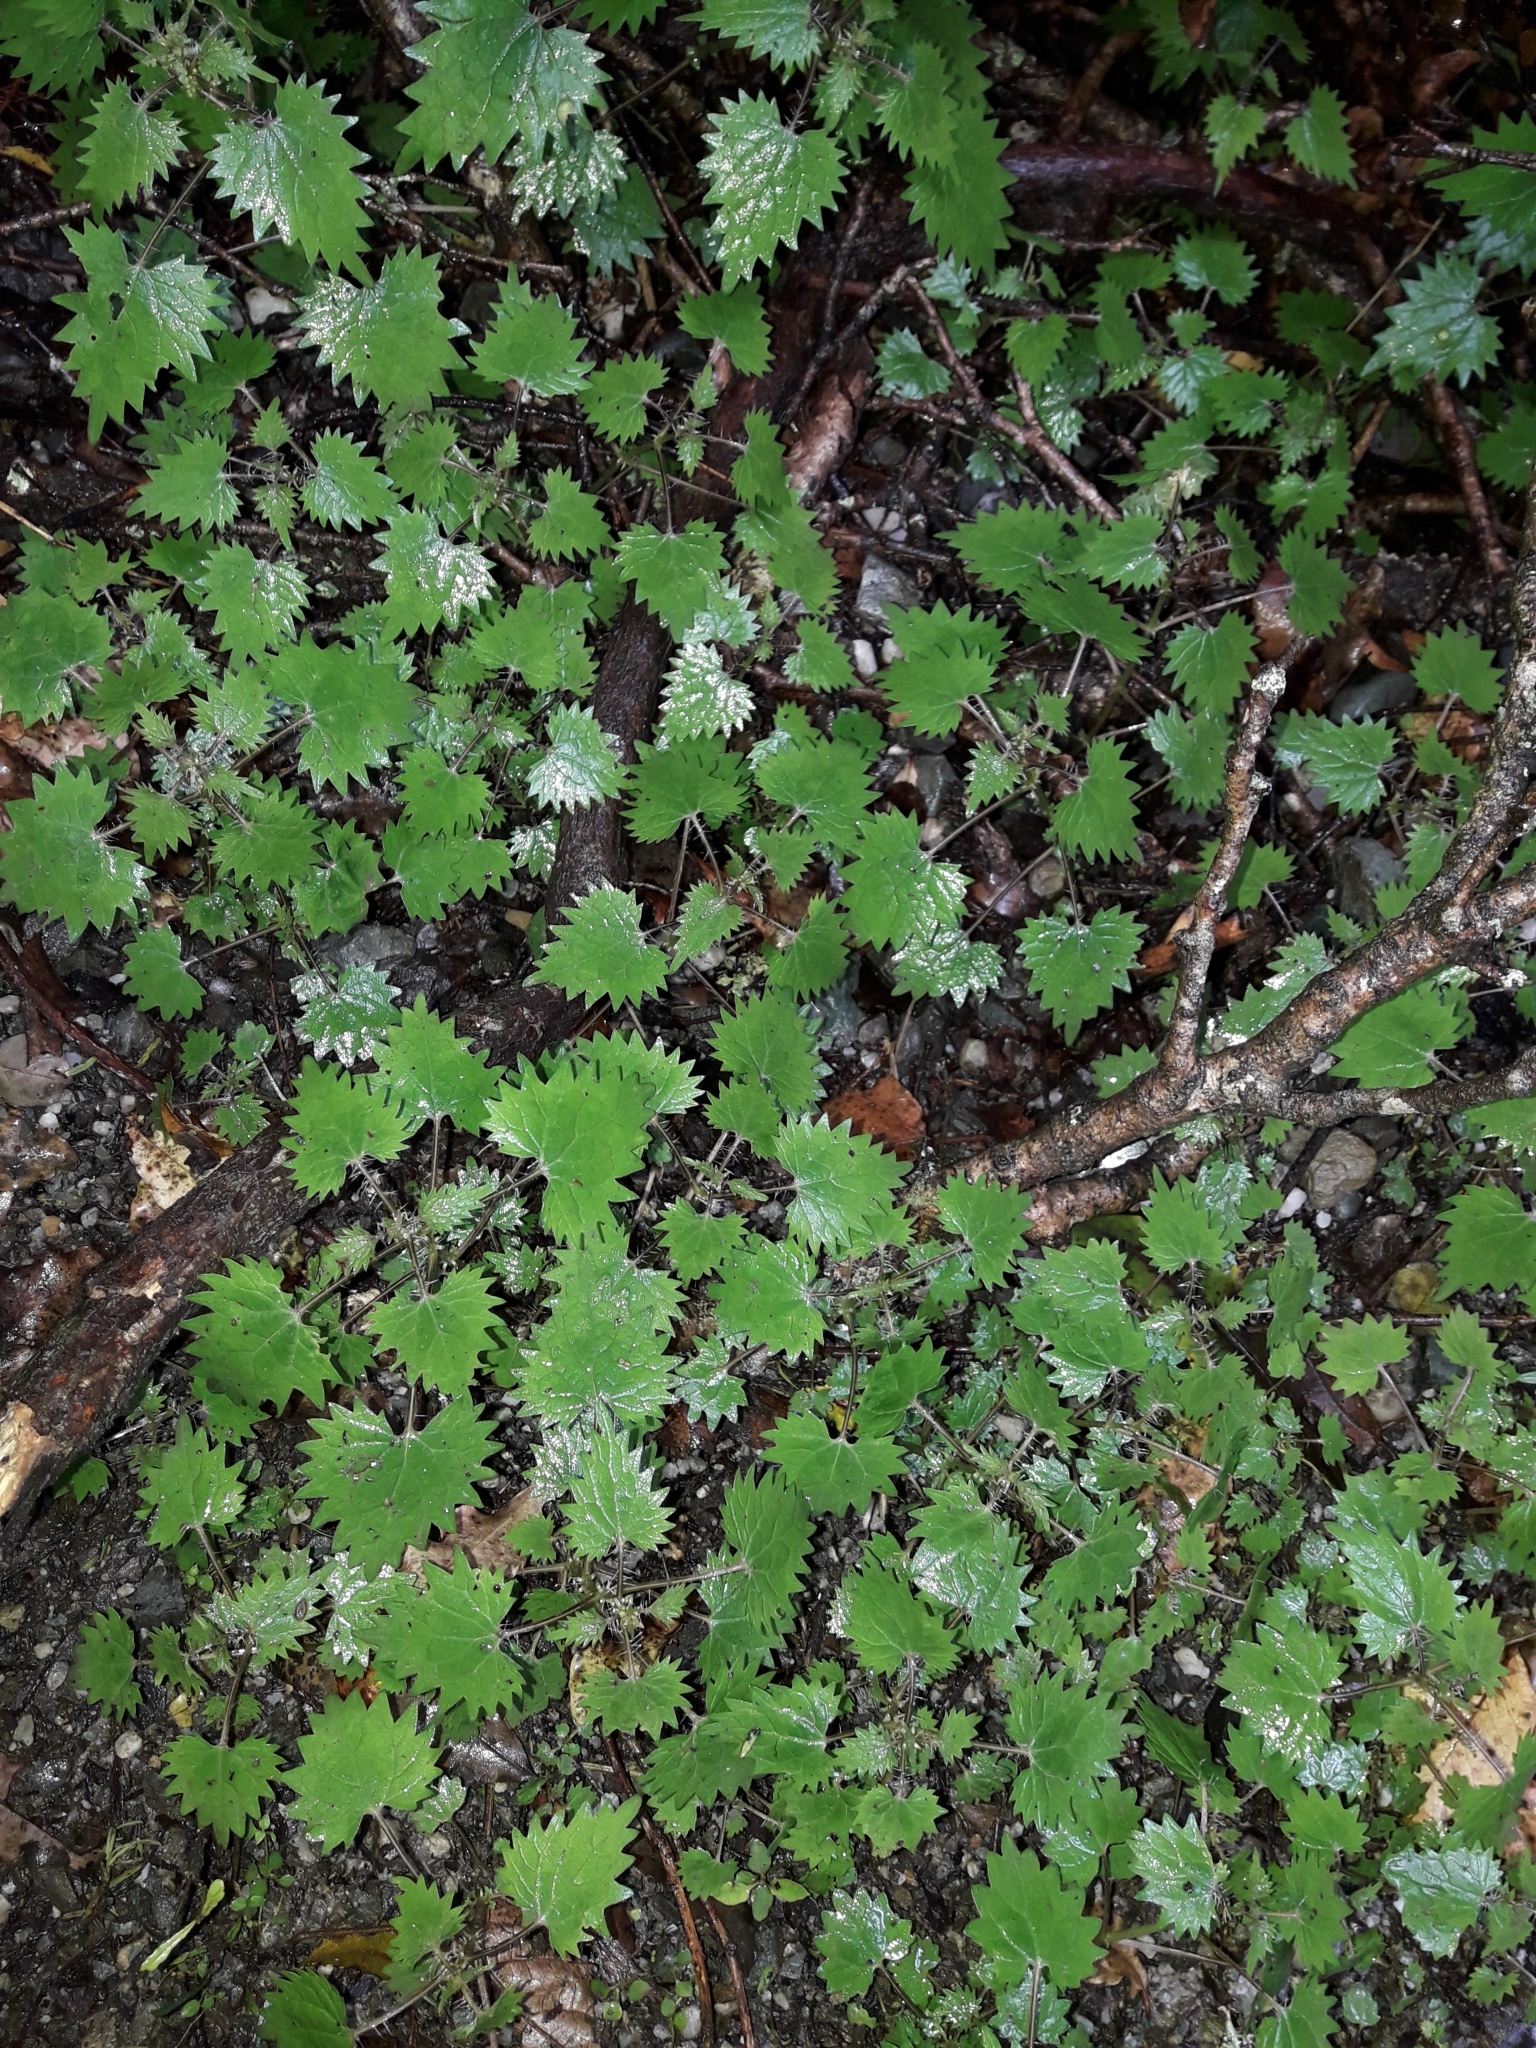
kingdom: Plantae
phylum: Tracheophyta
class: Magnoliopsida
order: Rosales
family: Urticaceae
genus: Urtica
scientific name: Urtica sykesii
